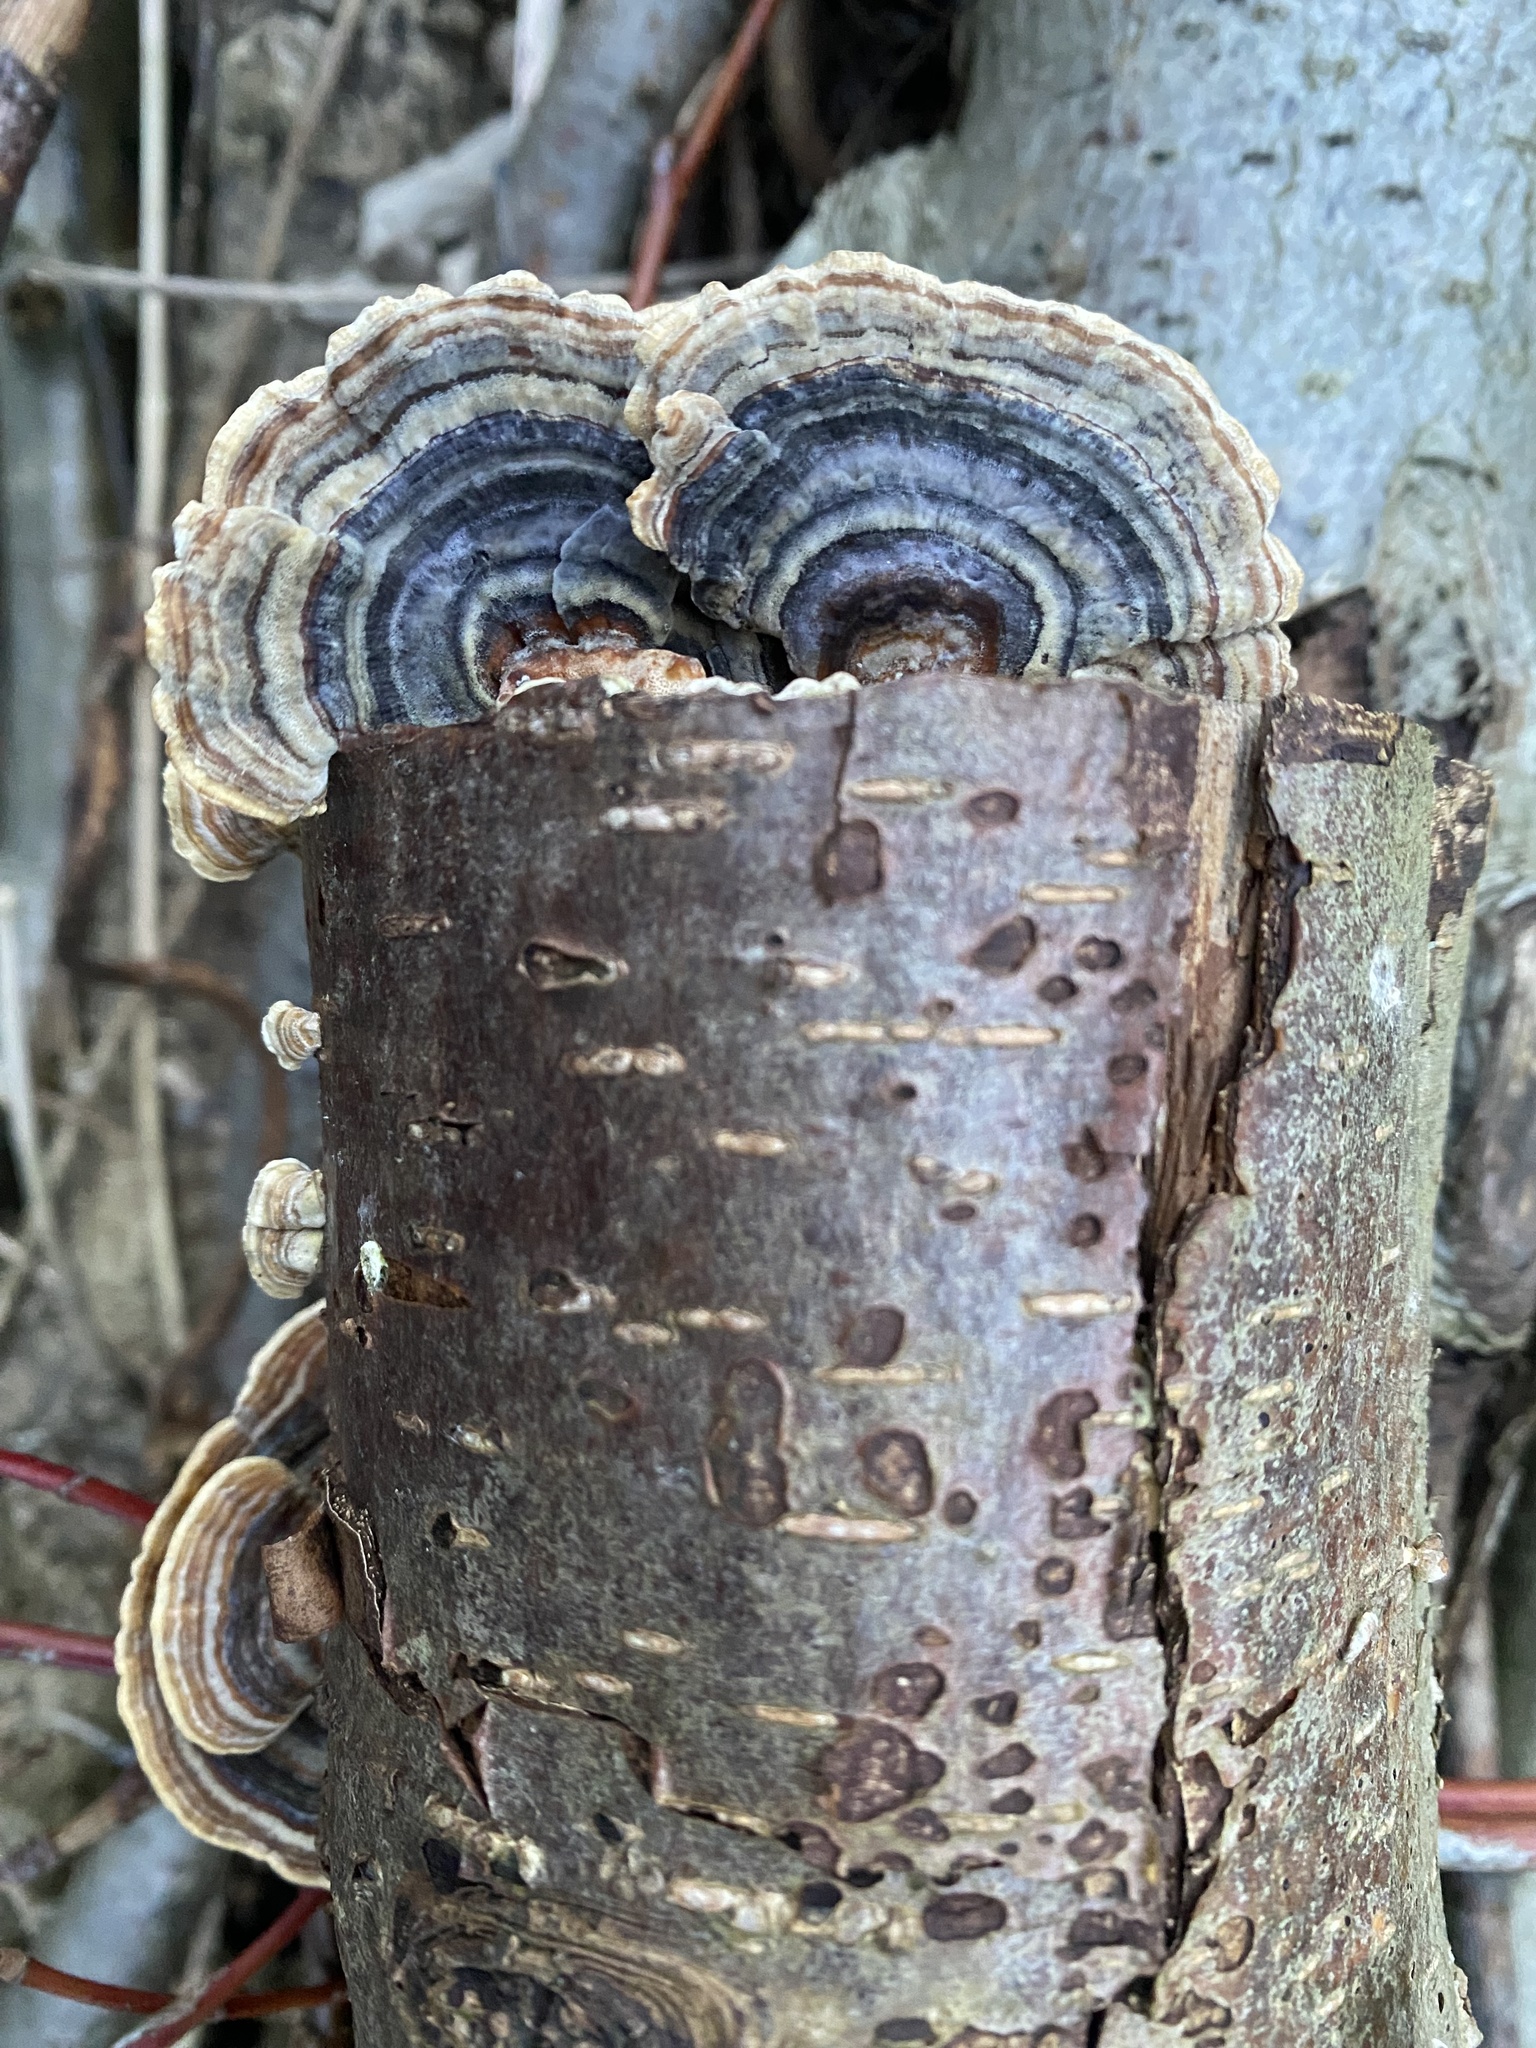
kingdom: Fungi
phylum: Basidiomycota
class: Agaricomycetes
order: Polyporales
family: Polyporaceae
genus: Trametes
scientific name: Trametes versicolor
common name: Turkeytail
